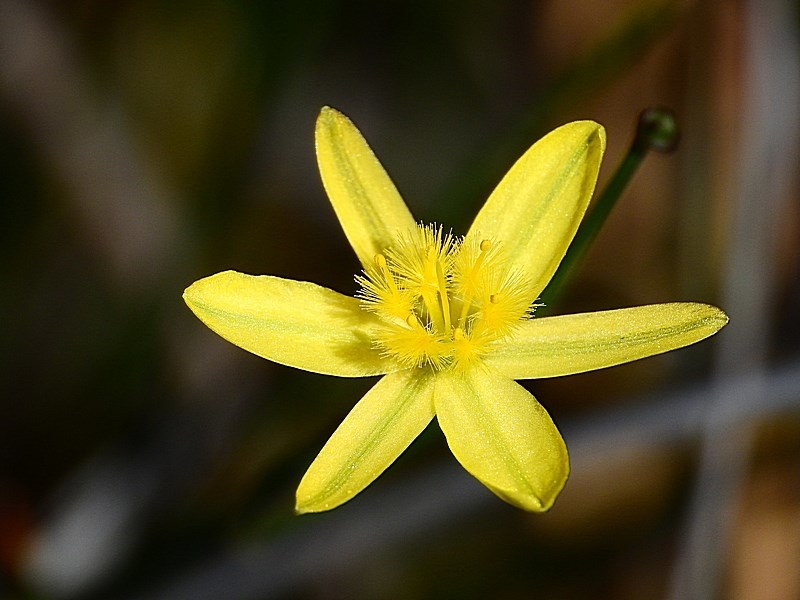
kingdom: Plantae
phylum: Tracheophyta
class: Liliopsida
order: Asparagales
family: Asphodelaceae
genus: Tricoryne
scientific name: Tricoryne elatior
